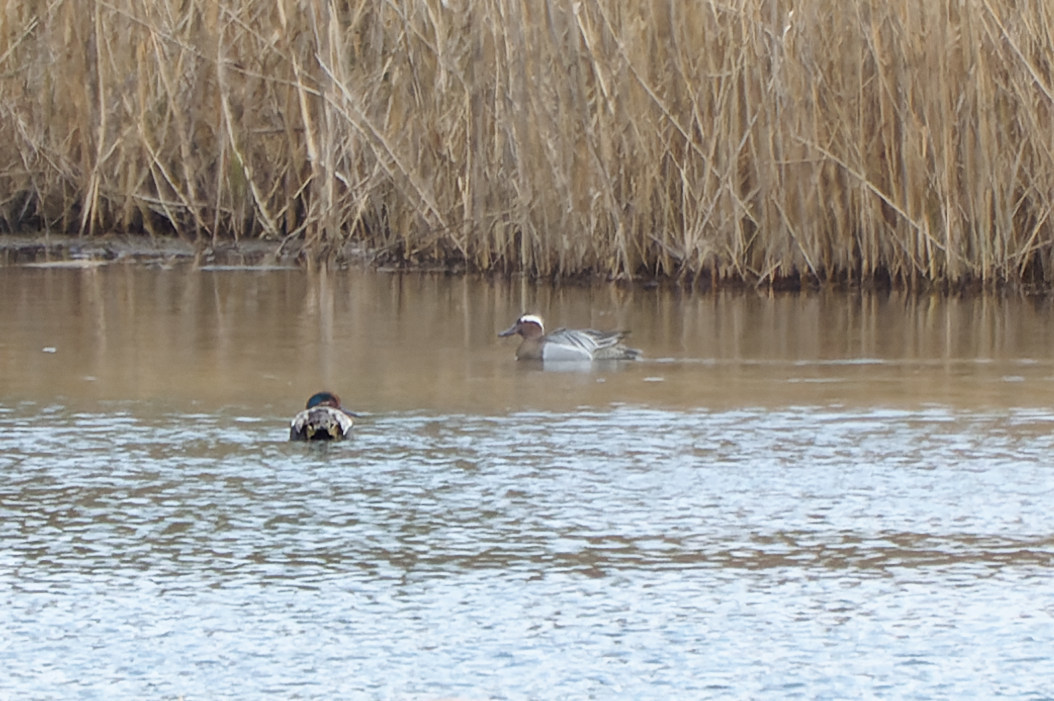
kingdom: Animalia
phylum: Chordata
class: Aves
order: Anseriformes
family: Anatidae
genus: Spatula
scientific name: Spatula querquedula
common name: Garganey
